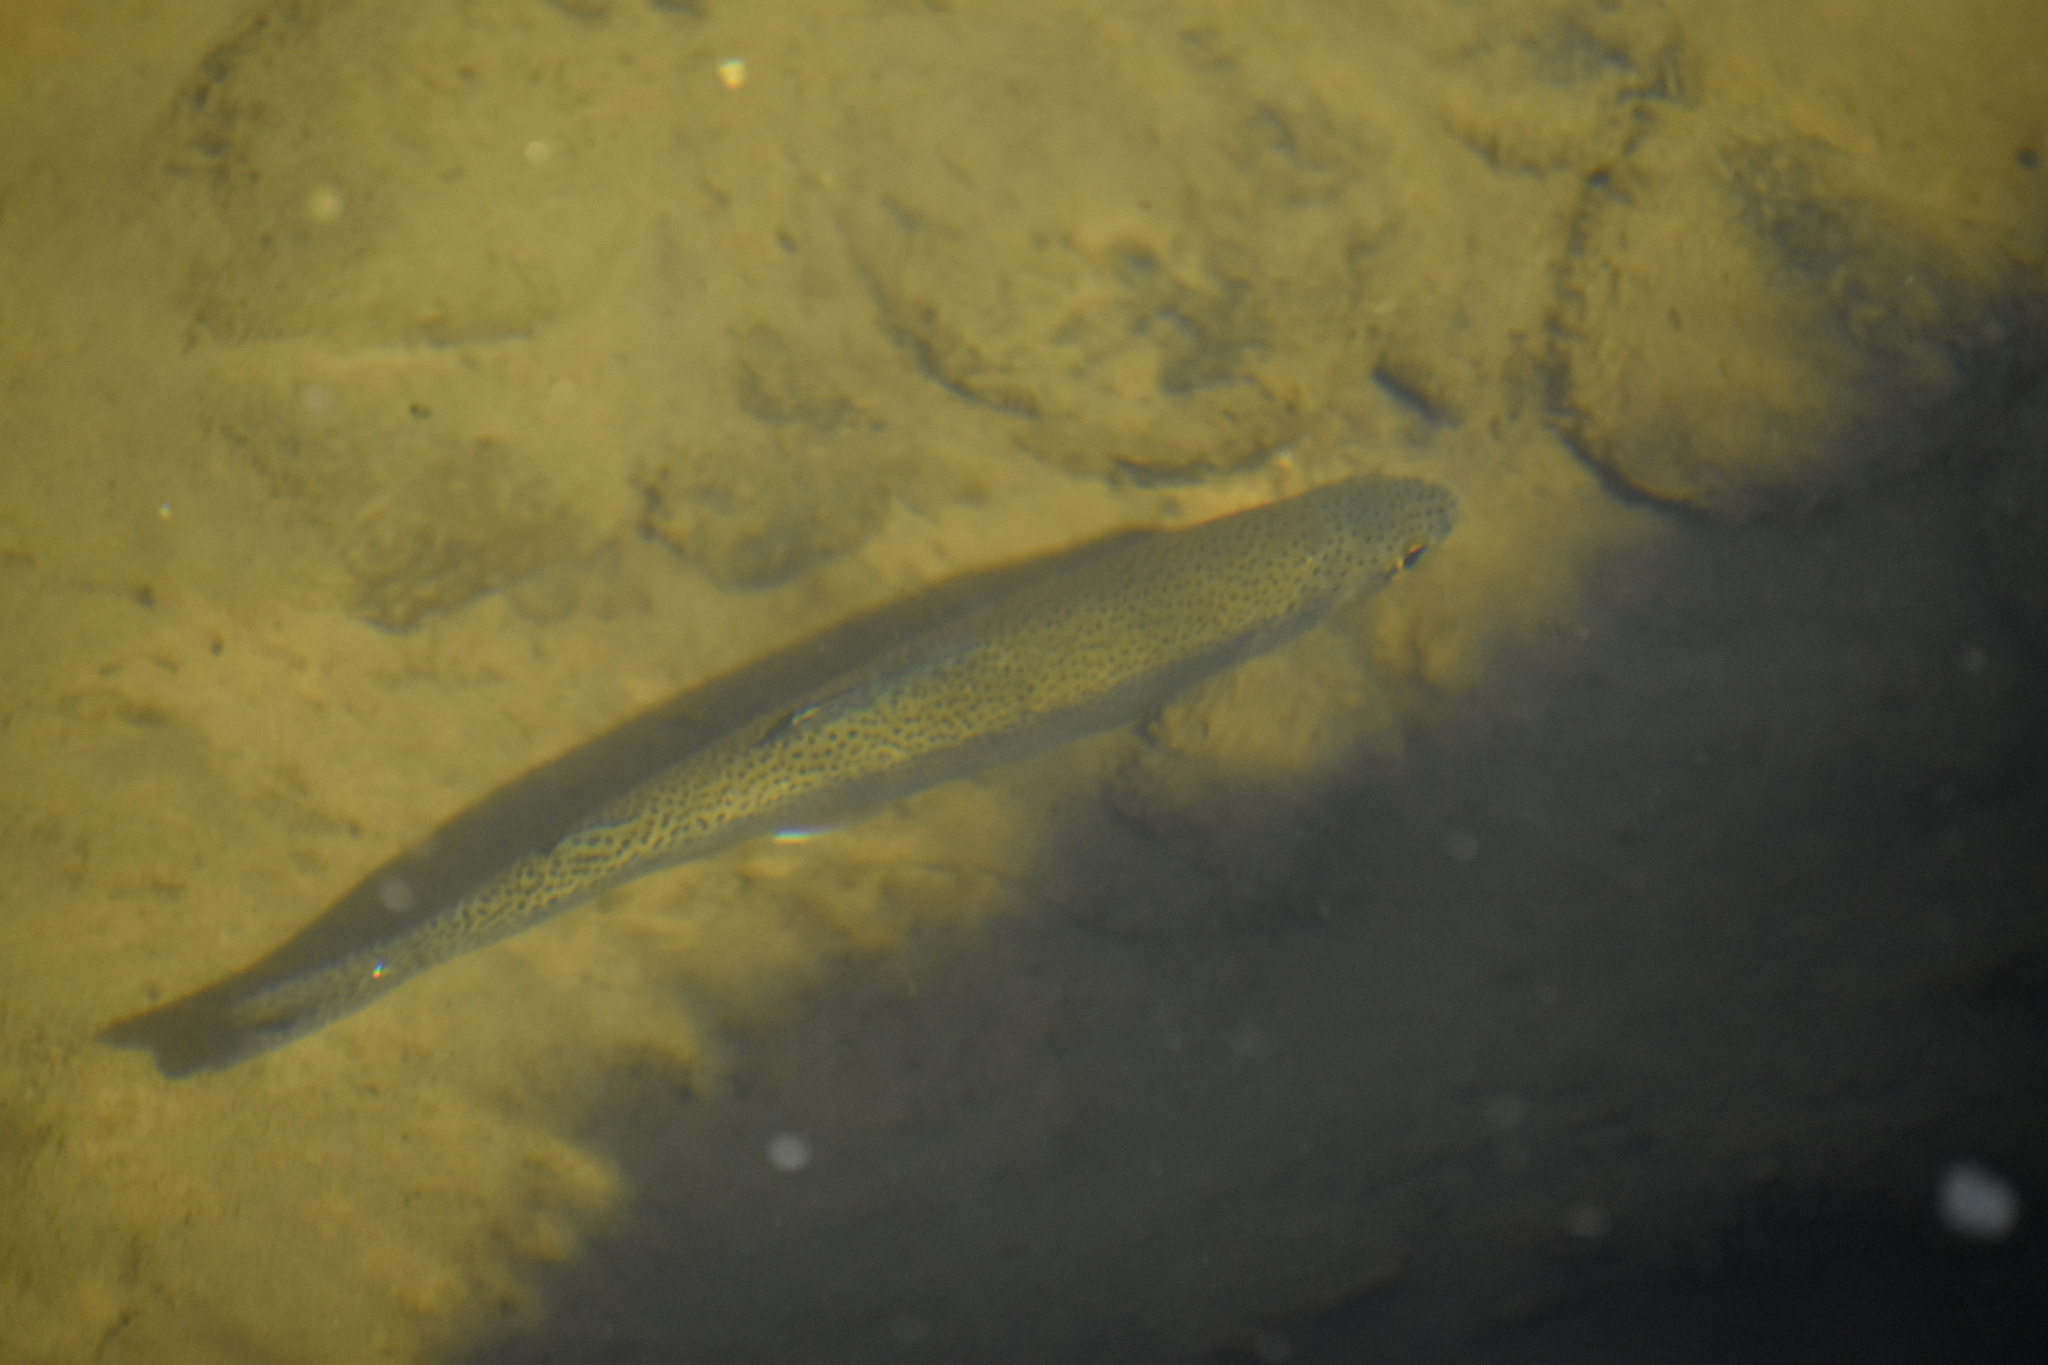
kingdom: Animalia
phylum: Chordata
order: Salmoniformes
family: Salmonidae
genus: Oncorhynchus
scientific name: Oncorhynchus mykiss
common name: Rainbow trout
